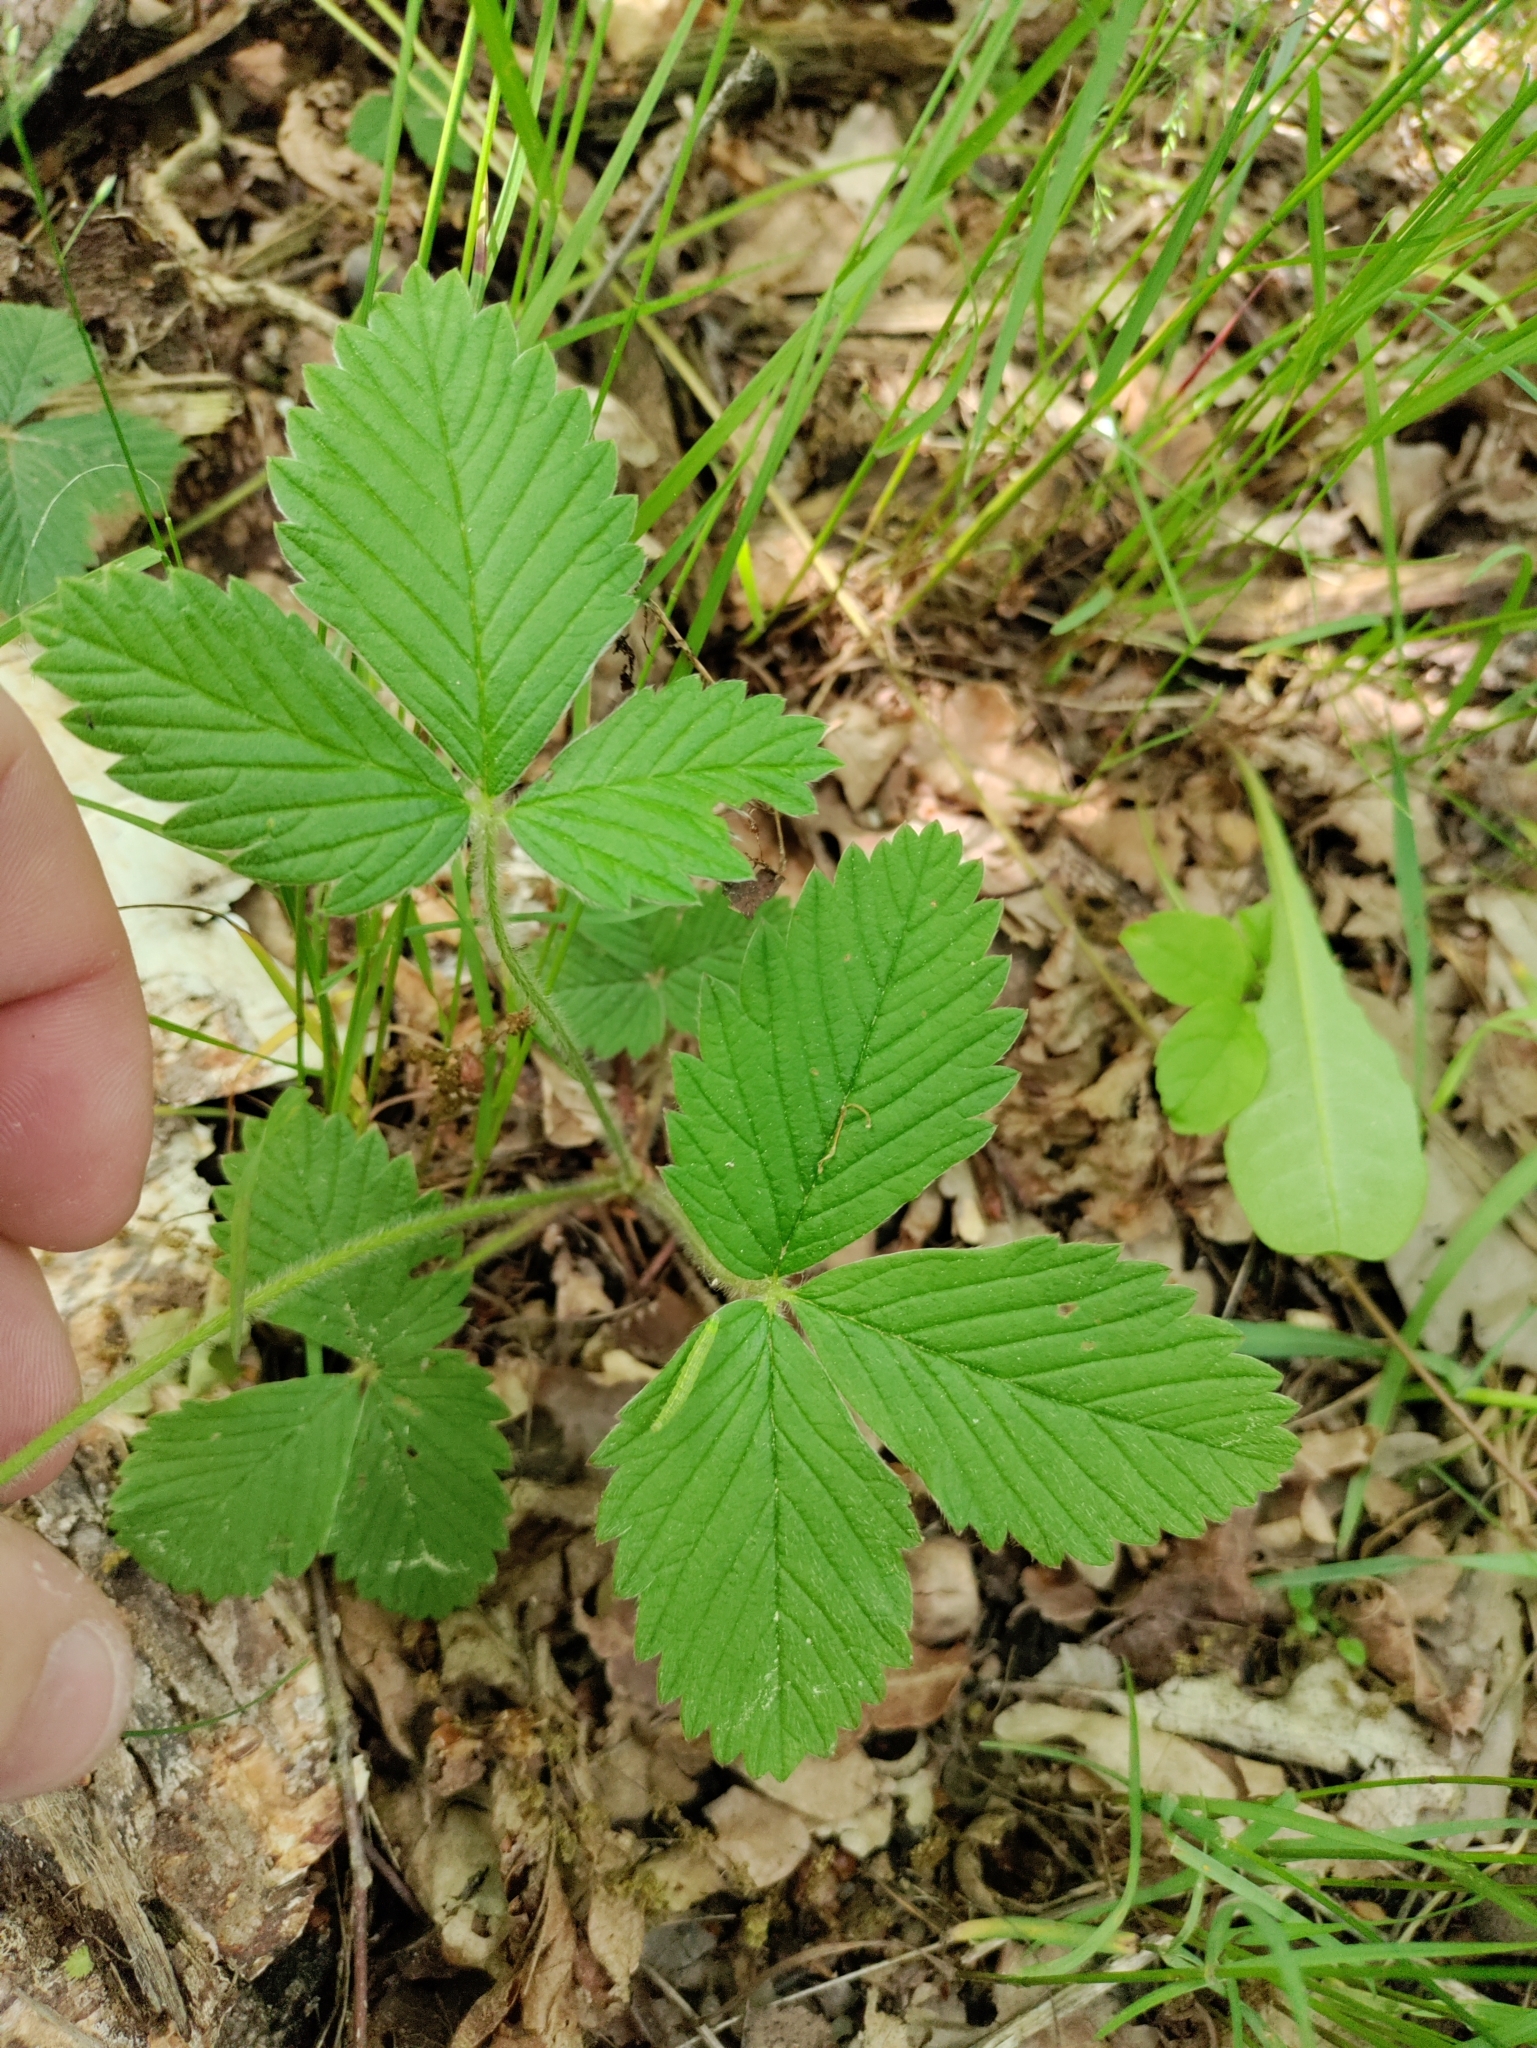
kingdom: Plantae
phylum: Tracheophyta
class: Magnoliopsida
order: Rosales
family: Rosaceae
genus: Fragaria
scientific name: Fragaria moschata
